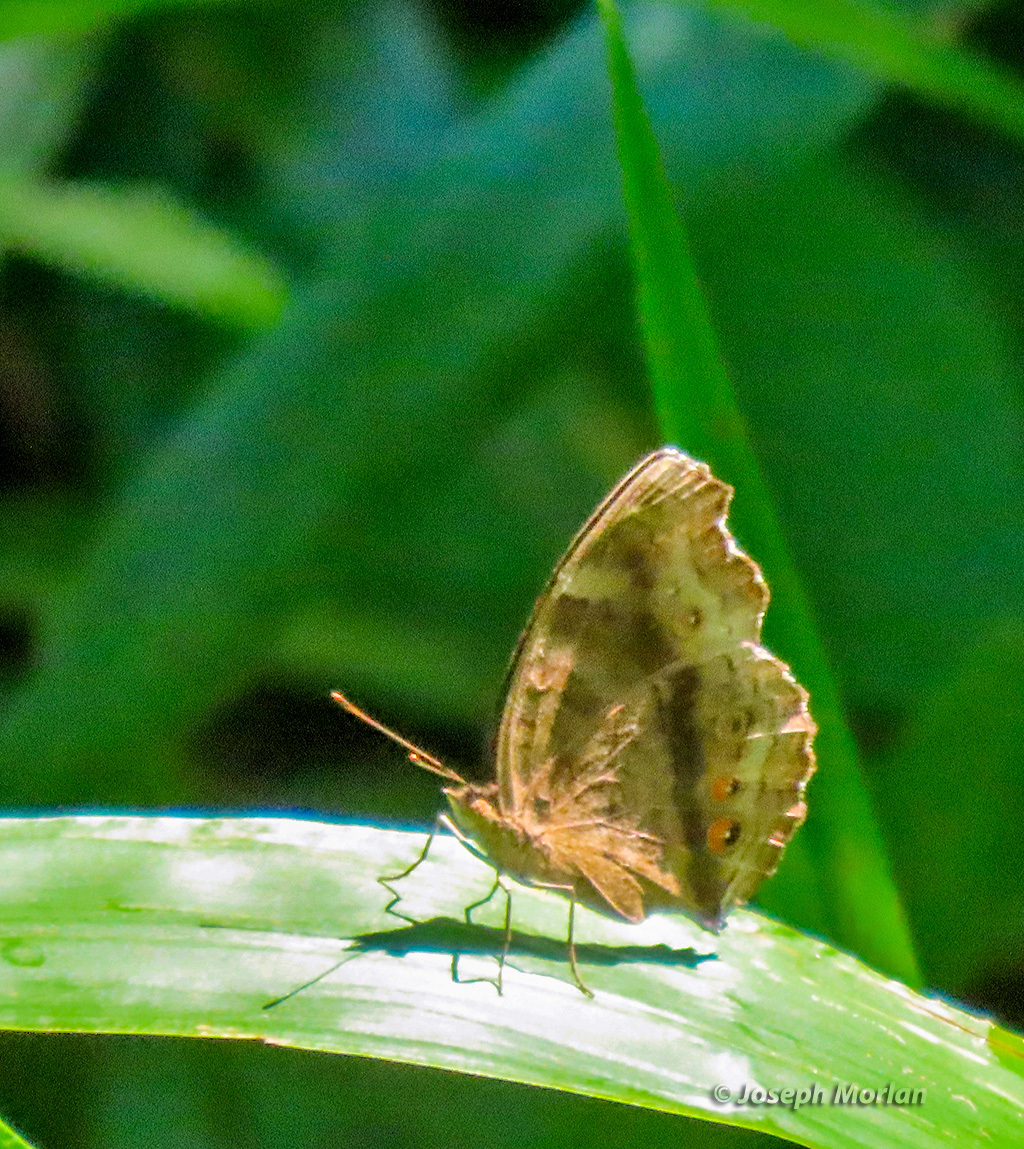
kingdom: Animalia
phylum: Arthropoda
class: Insecta
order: Lepidoptera
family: Nymphalidae
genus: Junonia
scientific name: Junonia hedonia
